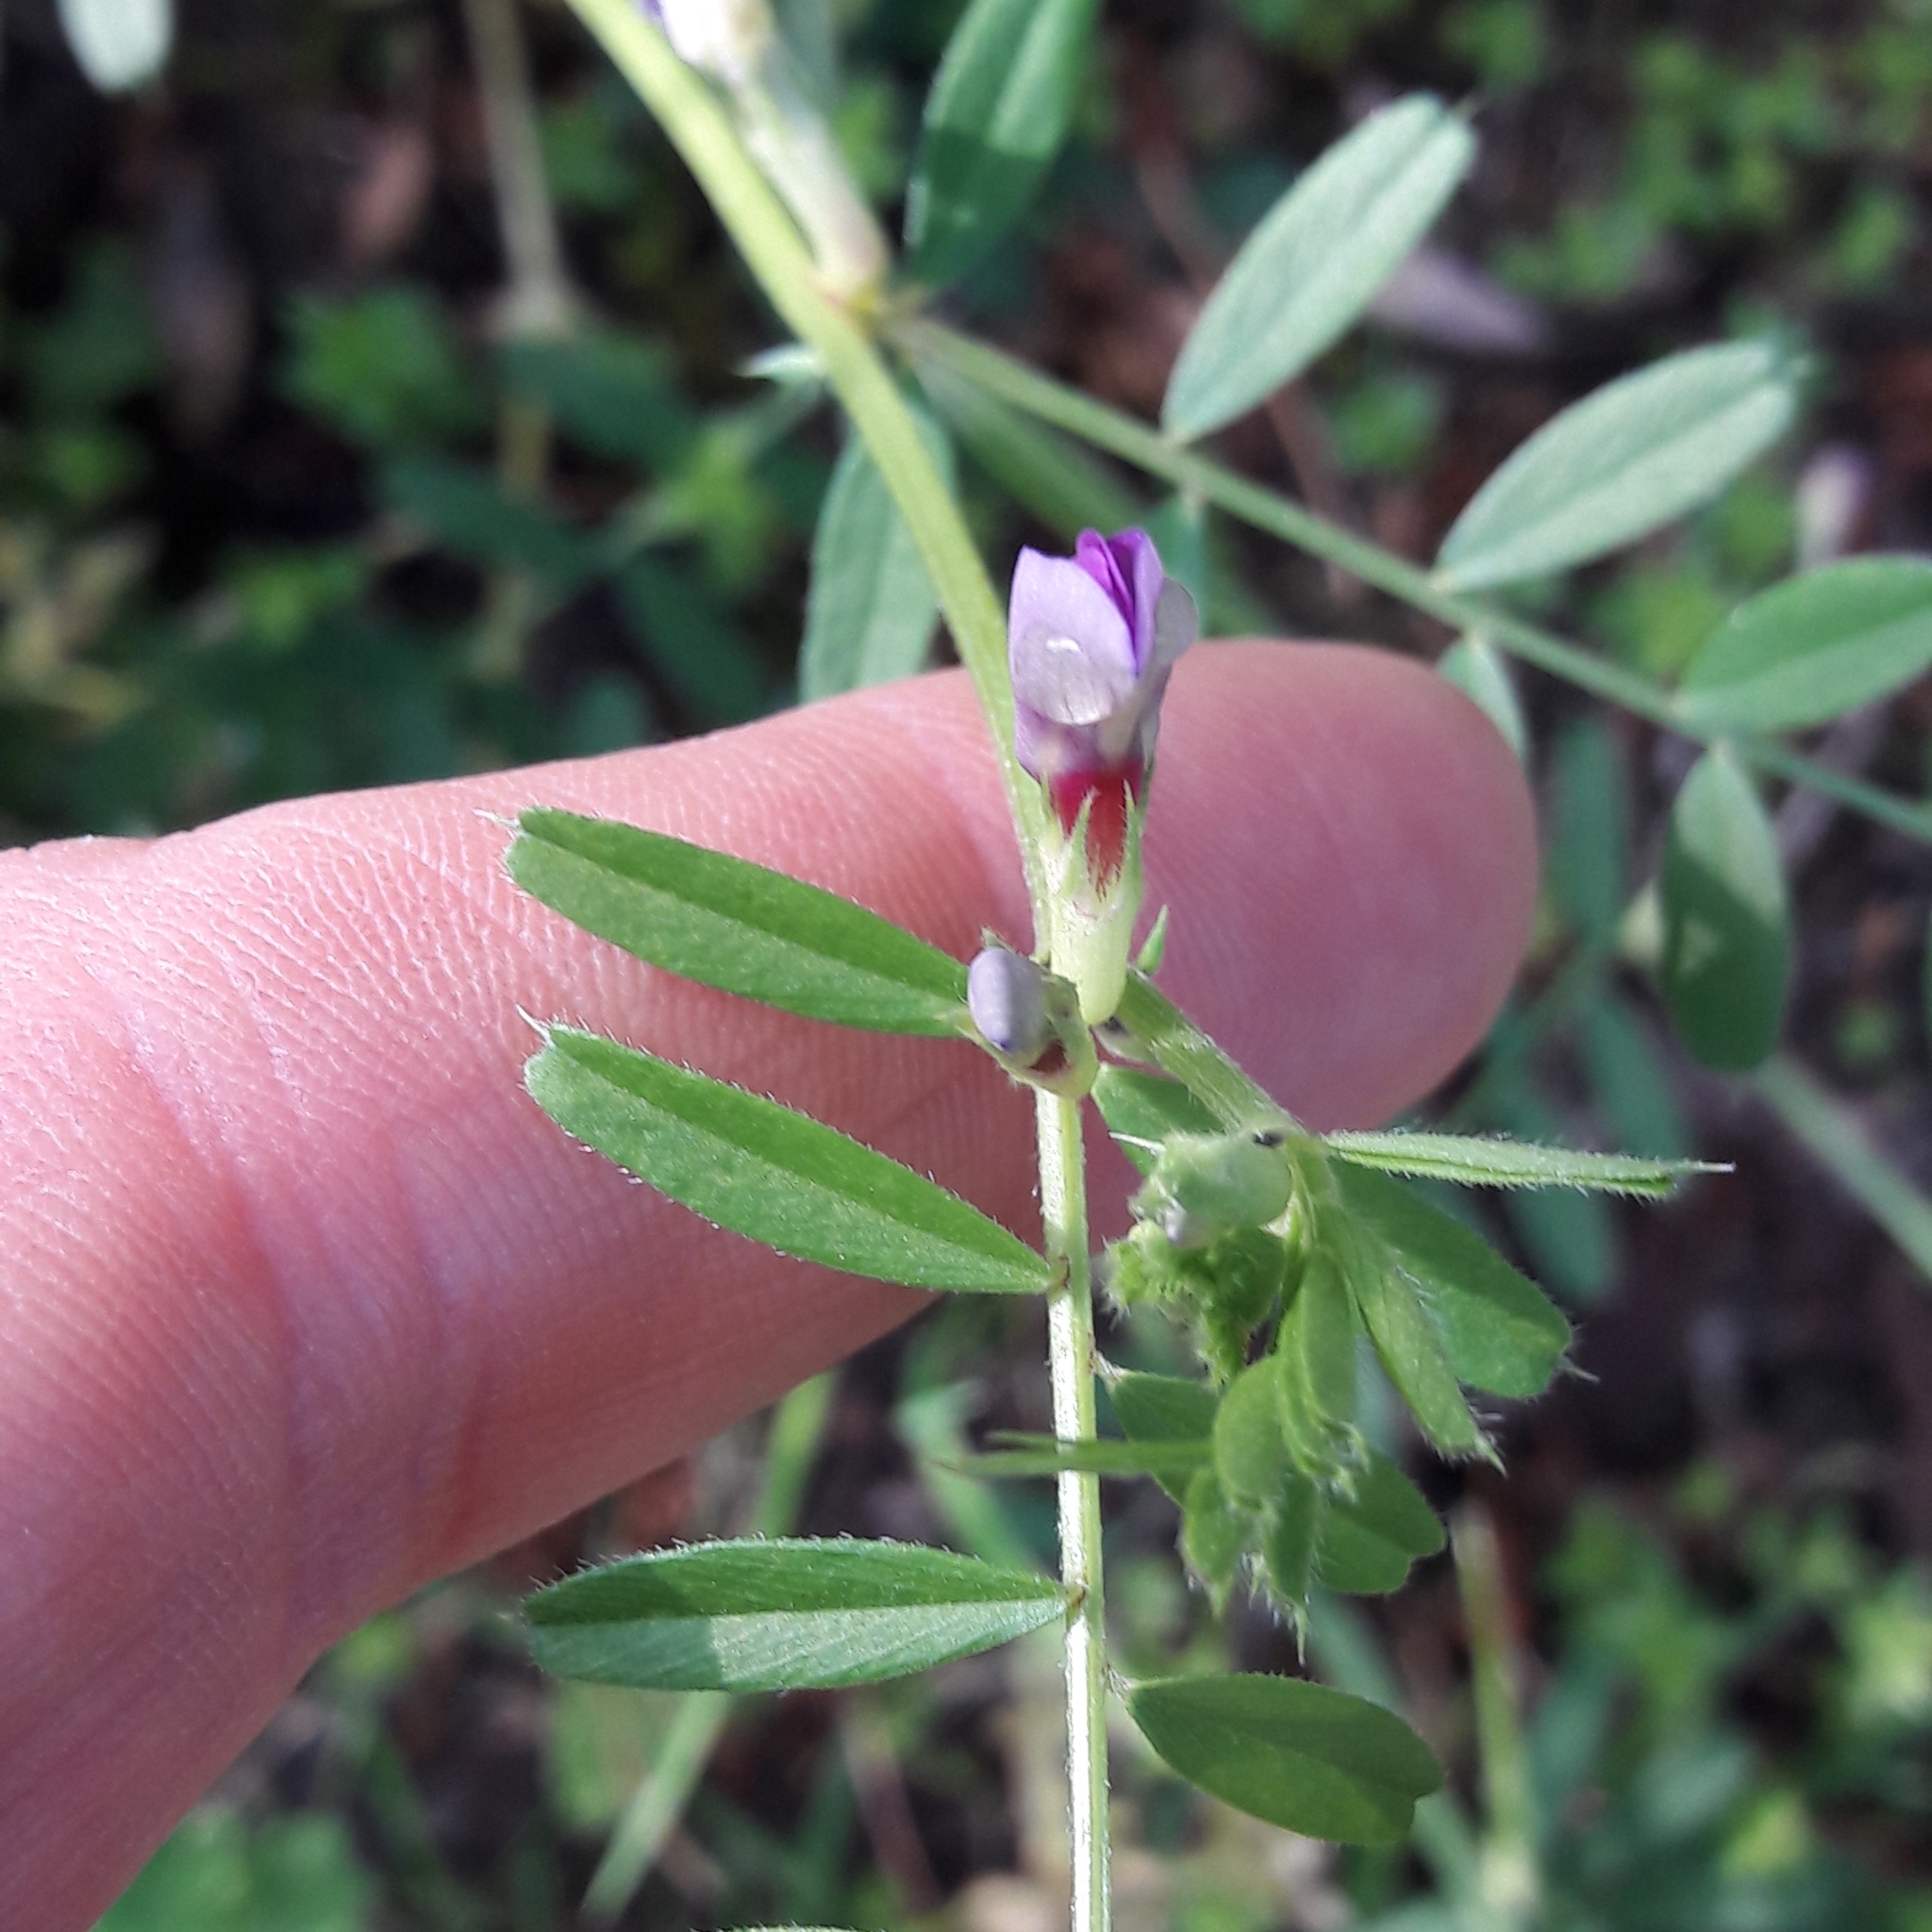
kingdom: Plantae
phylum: Tracheophyta
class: Magnoliopsida
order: Fabales
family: Fabaceae
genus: Vicia
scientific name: Vicia sativa
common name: Garden vetch
